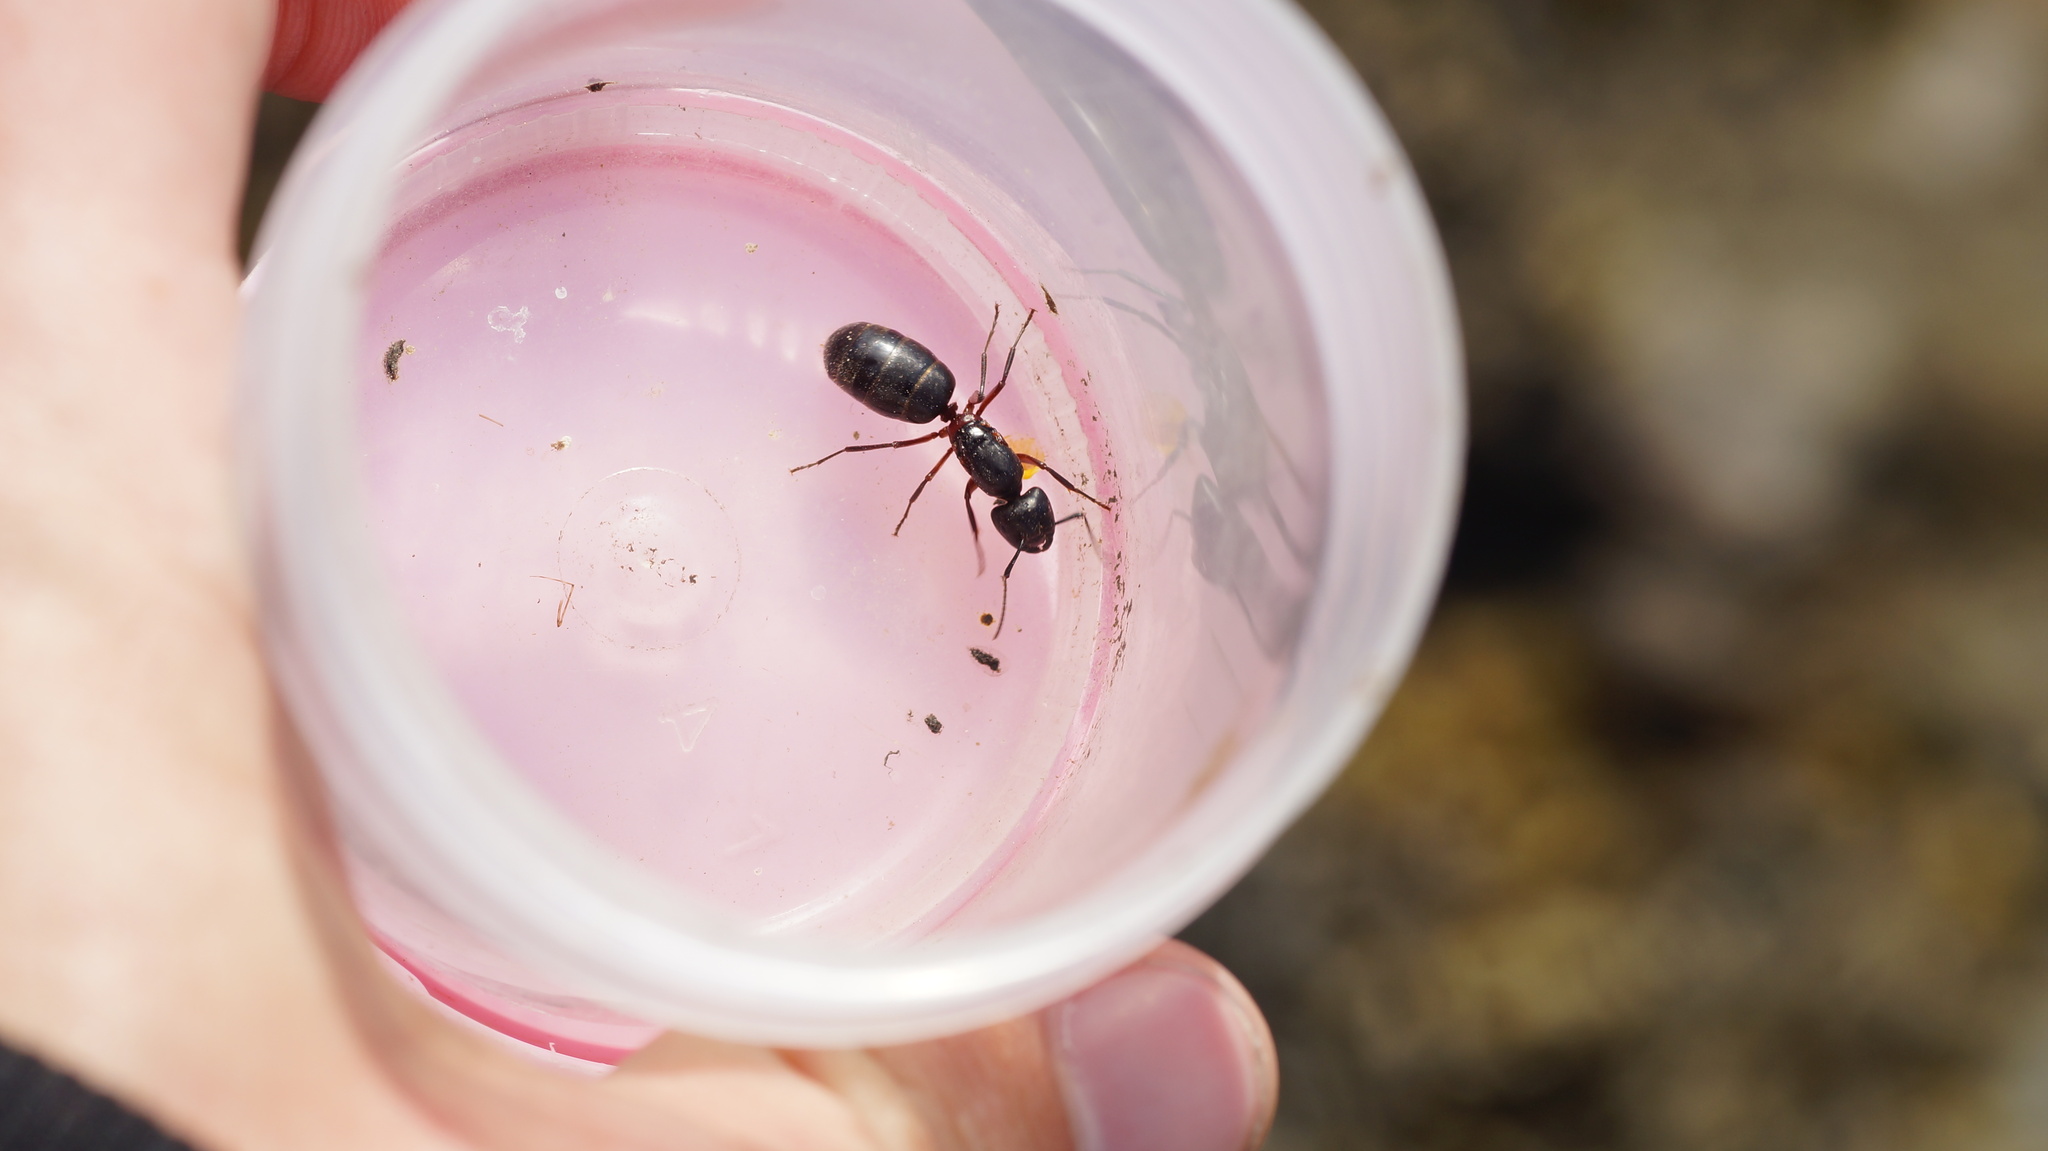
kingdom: Animalia
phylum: Arthropoda
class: Insecta
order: Hymenoptera
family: Formicidae
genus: Camponotus
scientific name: Camponotus herculeanus
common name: Hercules ant
